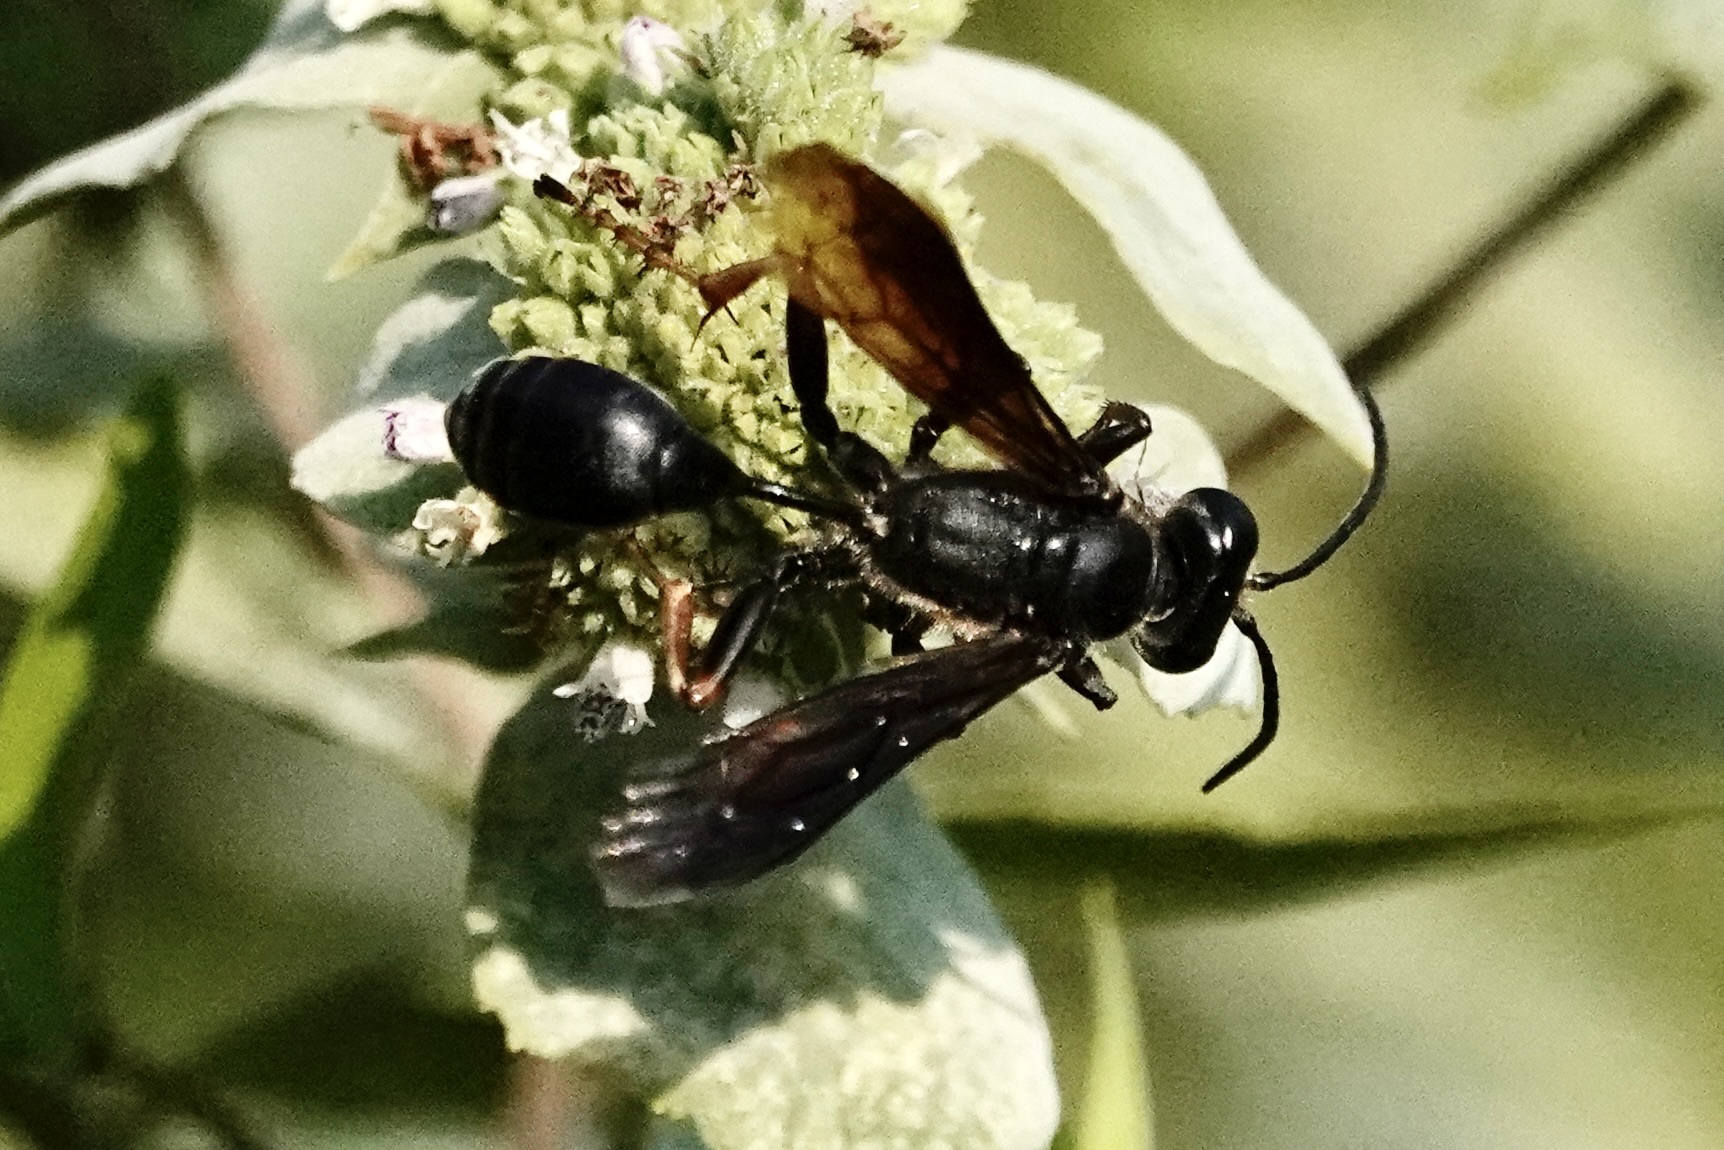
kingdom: Animalia
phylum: Arthropoda
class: Insecta
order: Hymenoptera
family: Sphecidae
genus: Isodontia
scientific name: Isodontia auripes
